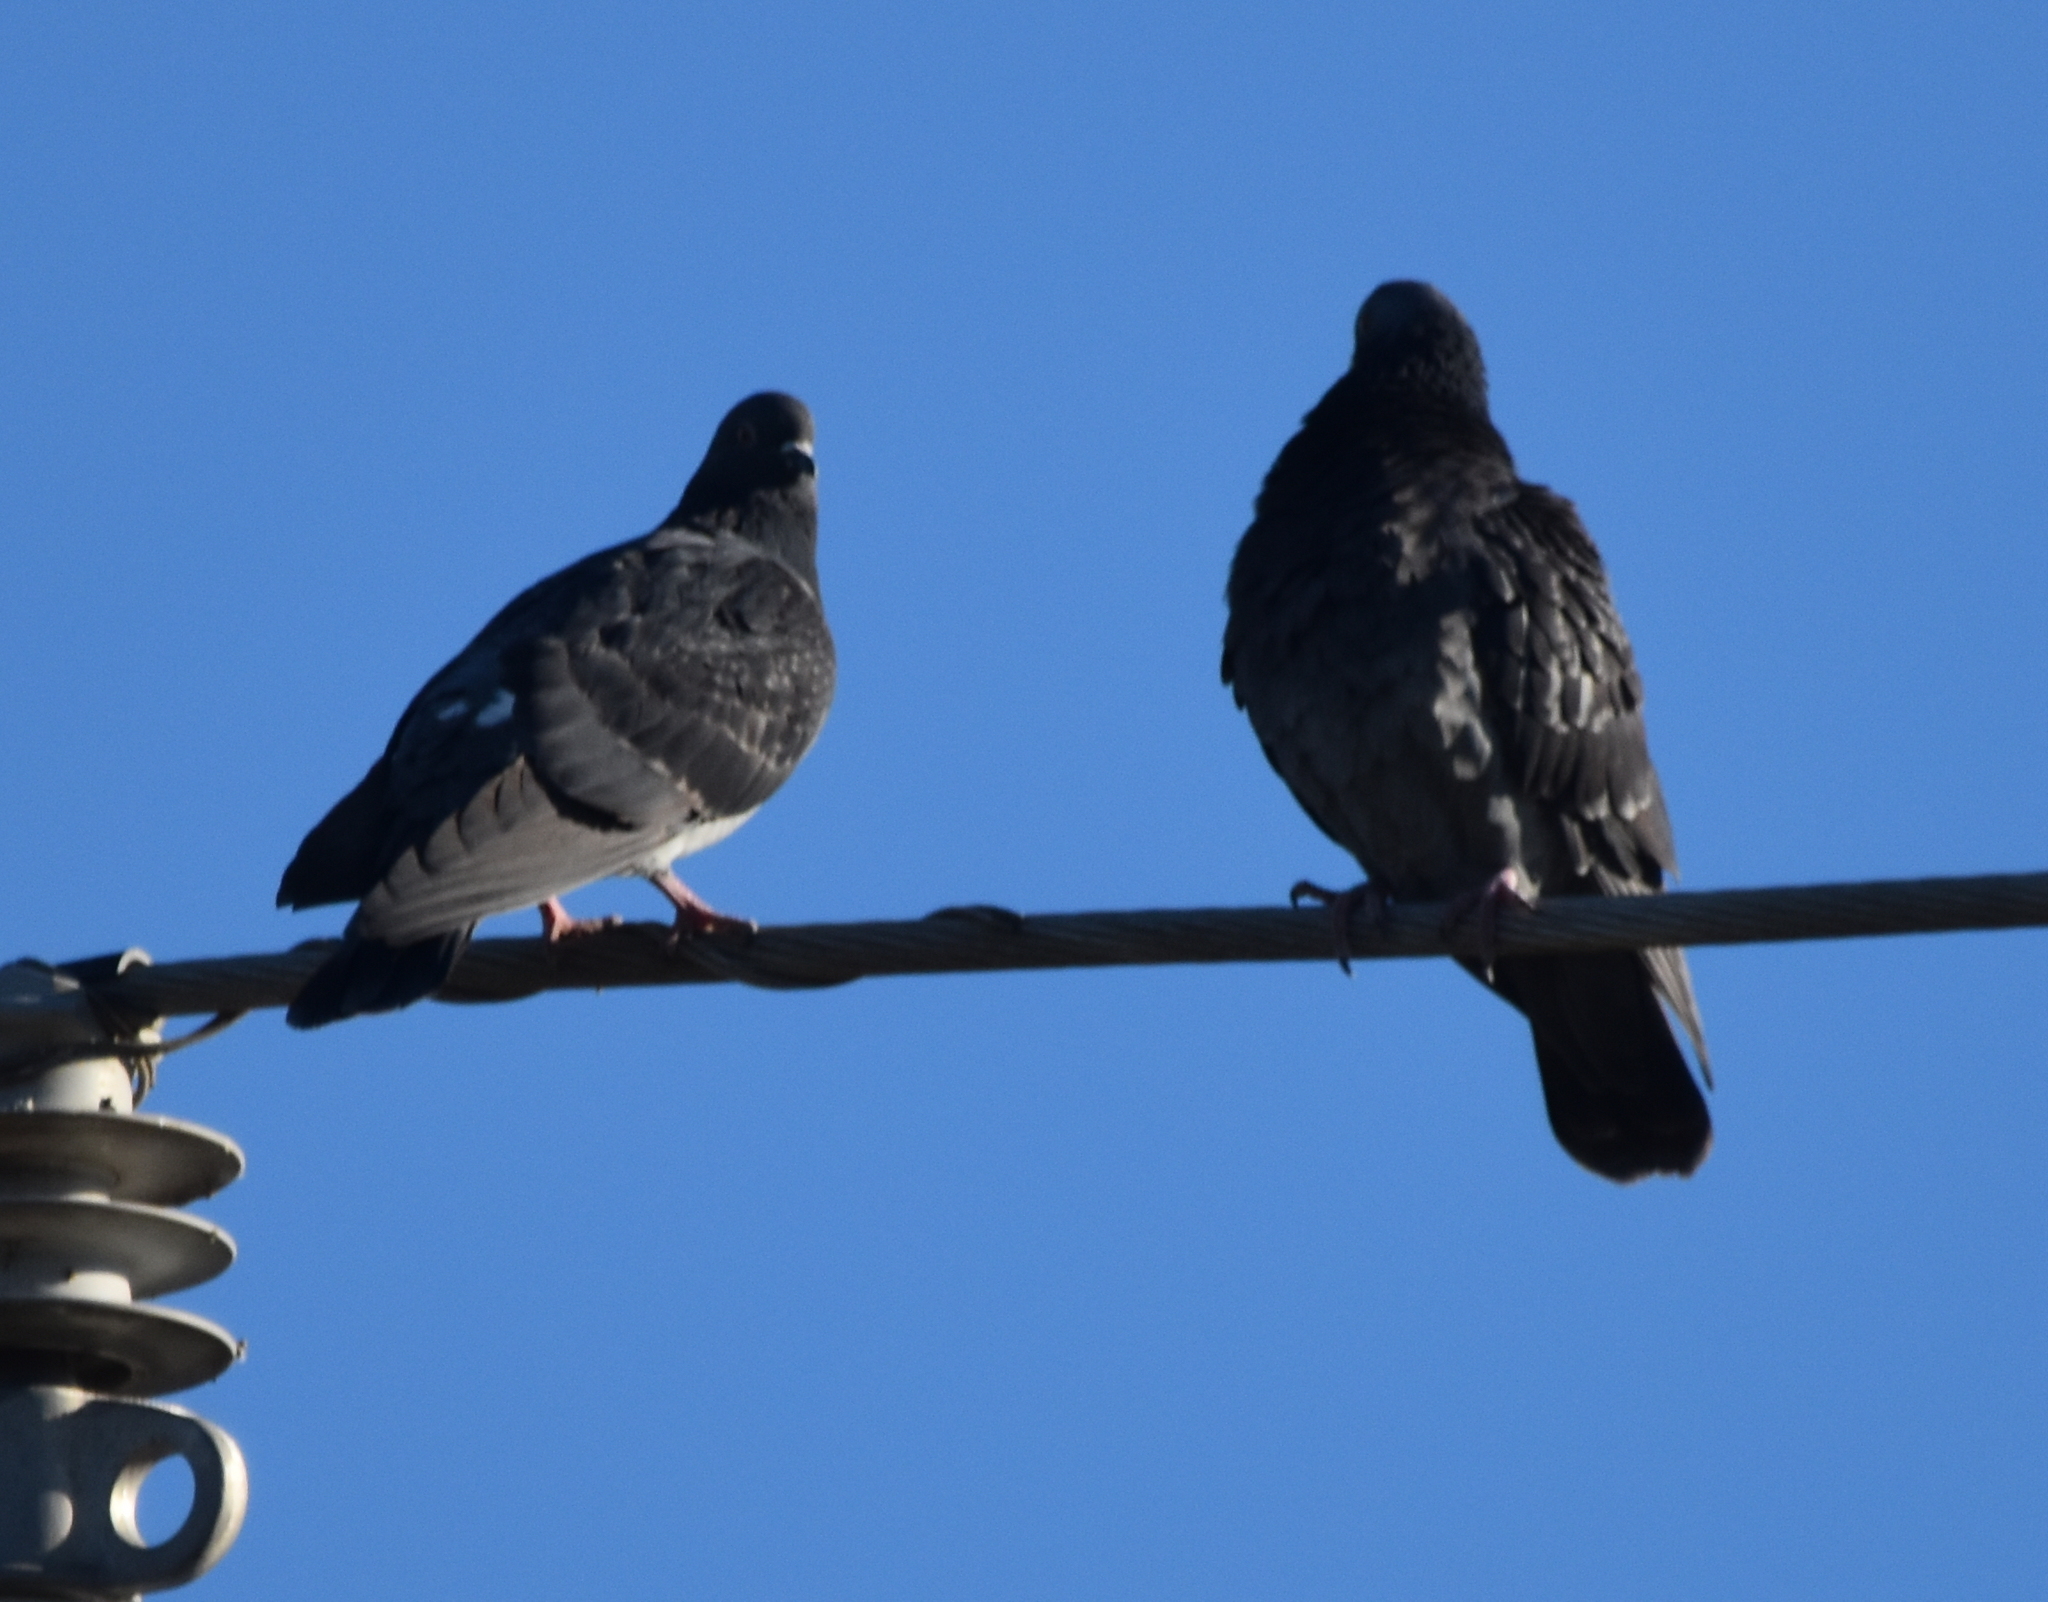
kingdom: Animalia
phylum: Chordata
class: Aves
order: Columbiformes
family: Columbidae
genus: Columba
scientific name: Columba livia
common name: Rock pigeon
